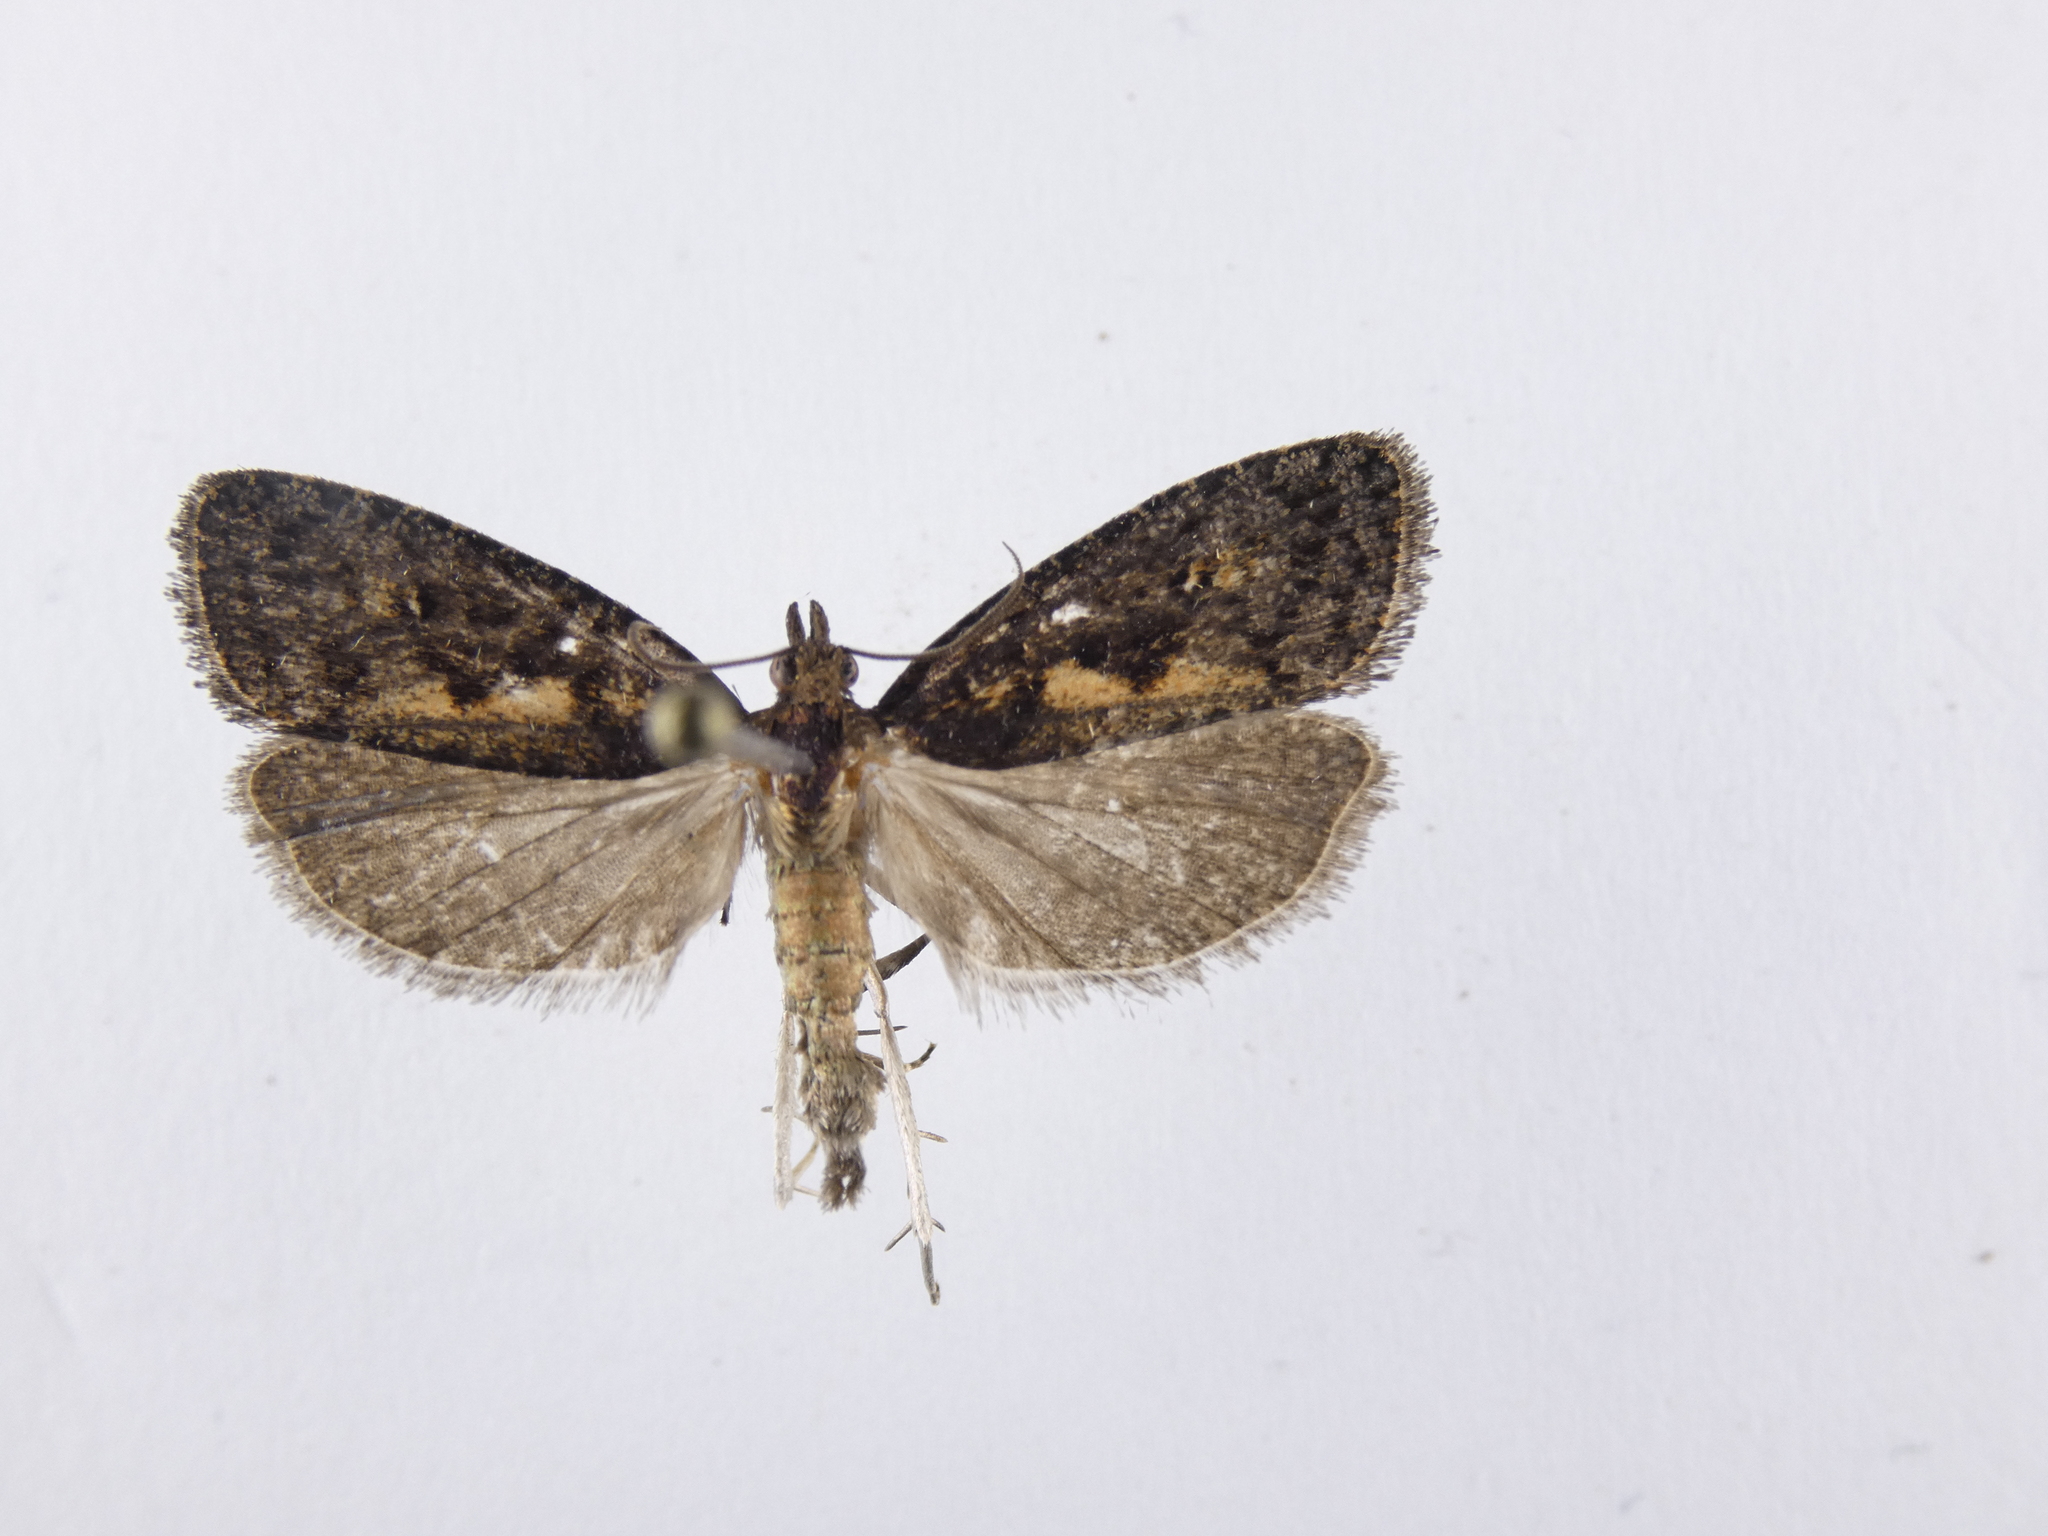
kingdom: Animalia
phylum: Arthropoda
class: Insecta
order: Lepidoptera
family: Tortricidae
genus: Cryptaspasma
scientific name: Cryptaspasma querula
